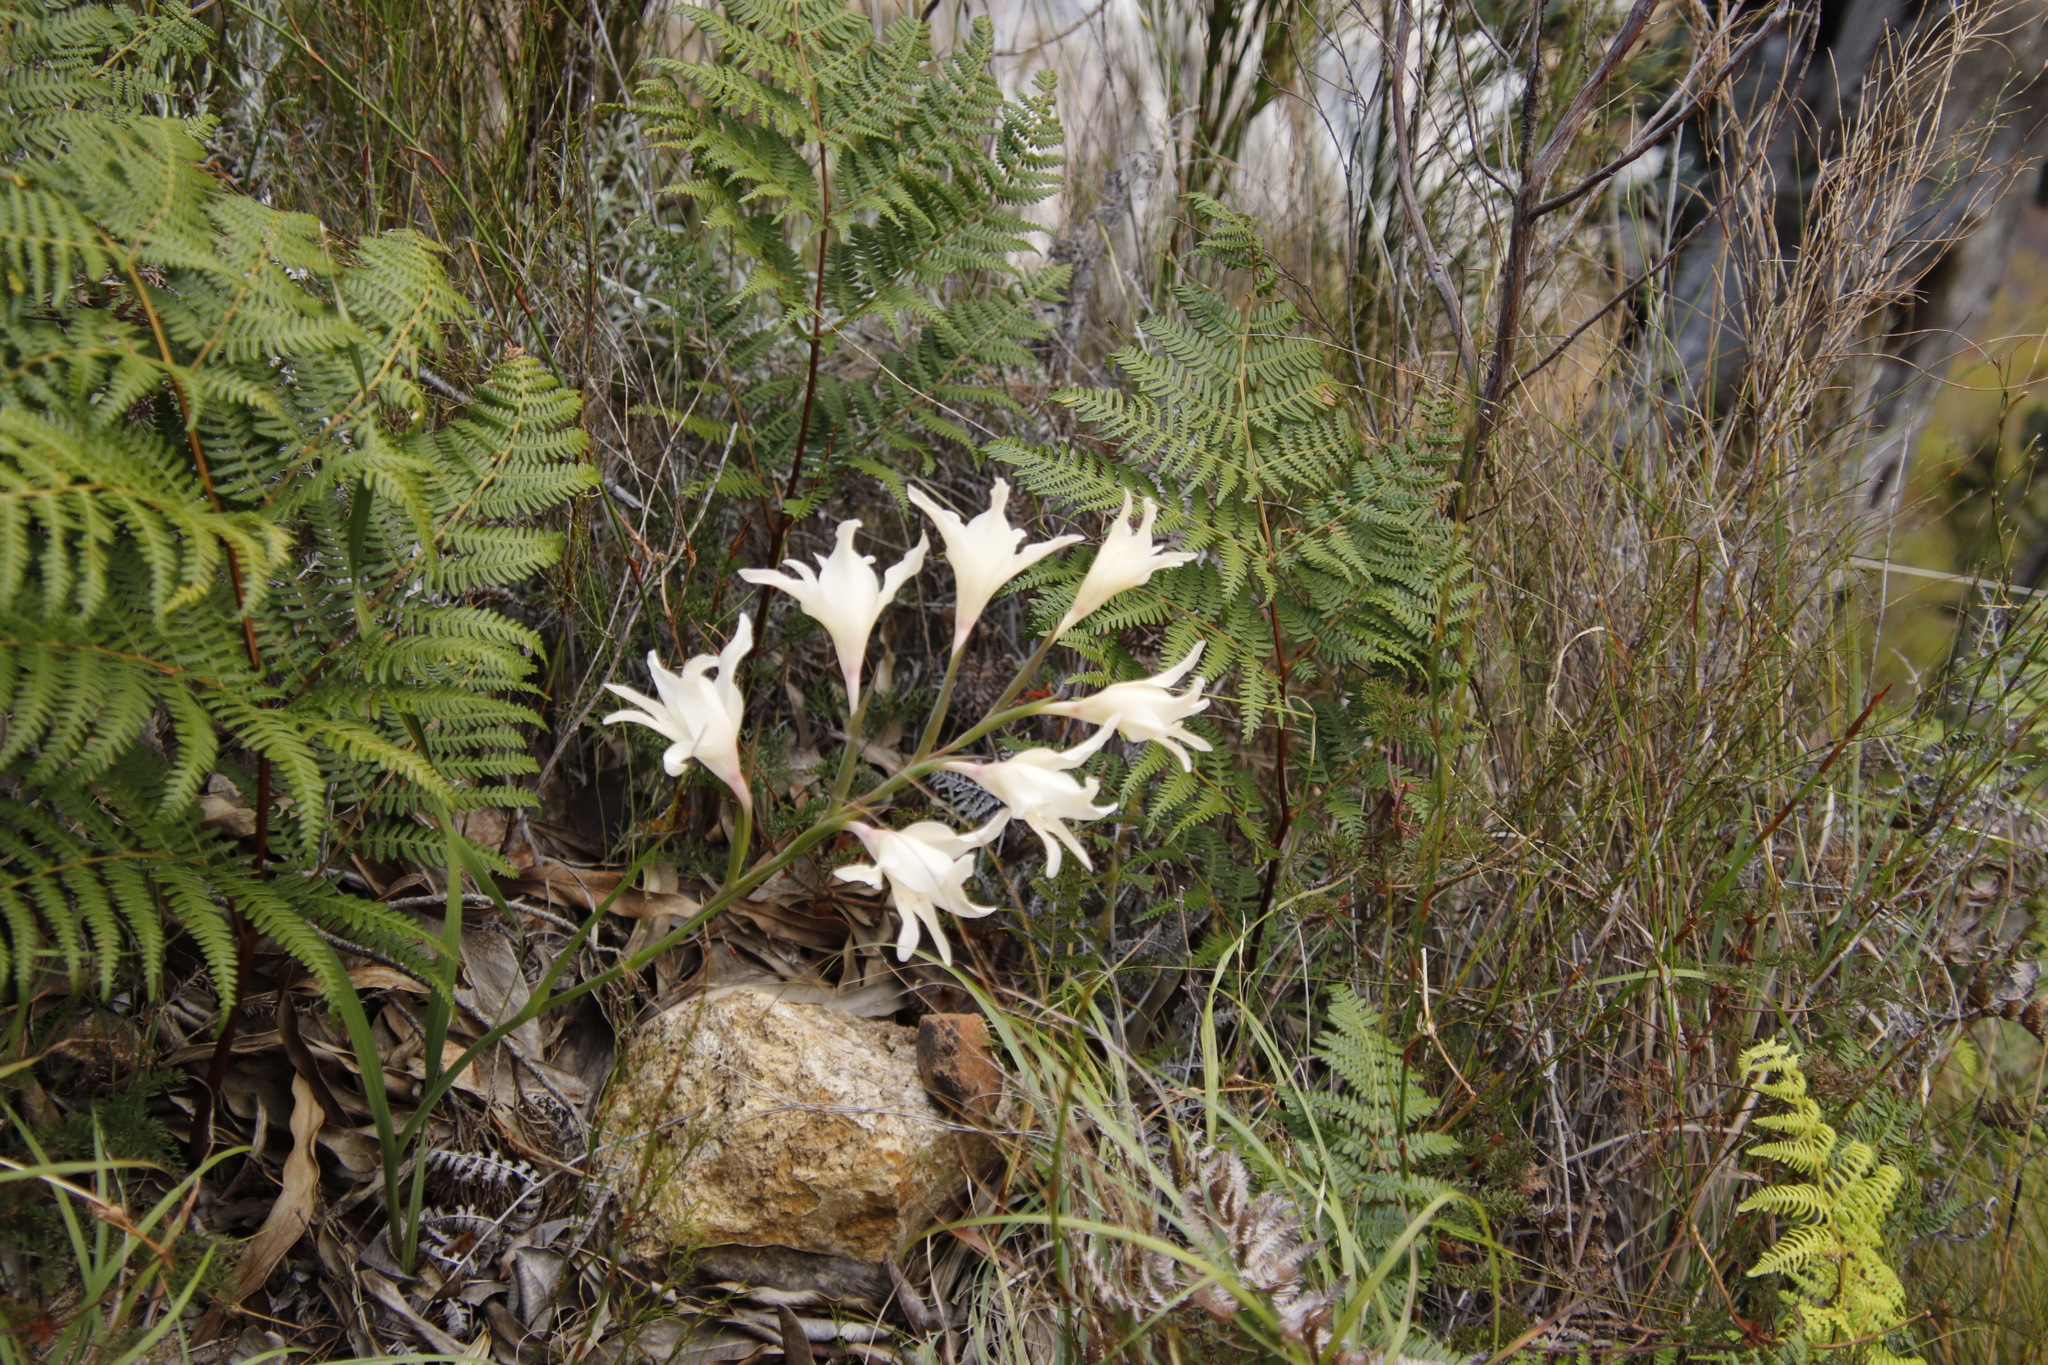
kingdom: Plantae
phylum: Tracheophyta
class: Liliopsida
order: Asparagales
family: Iridaceae
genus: Gladiolus
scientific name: Gladiolus undulatus
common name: Large painted-lady
